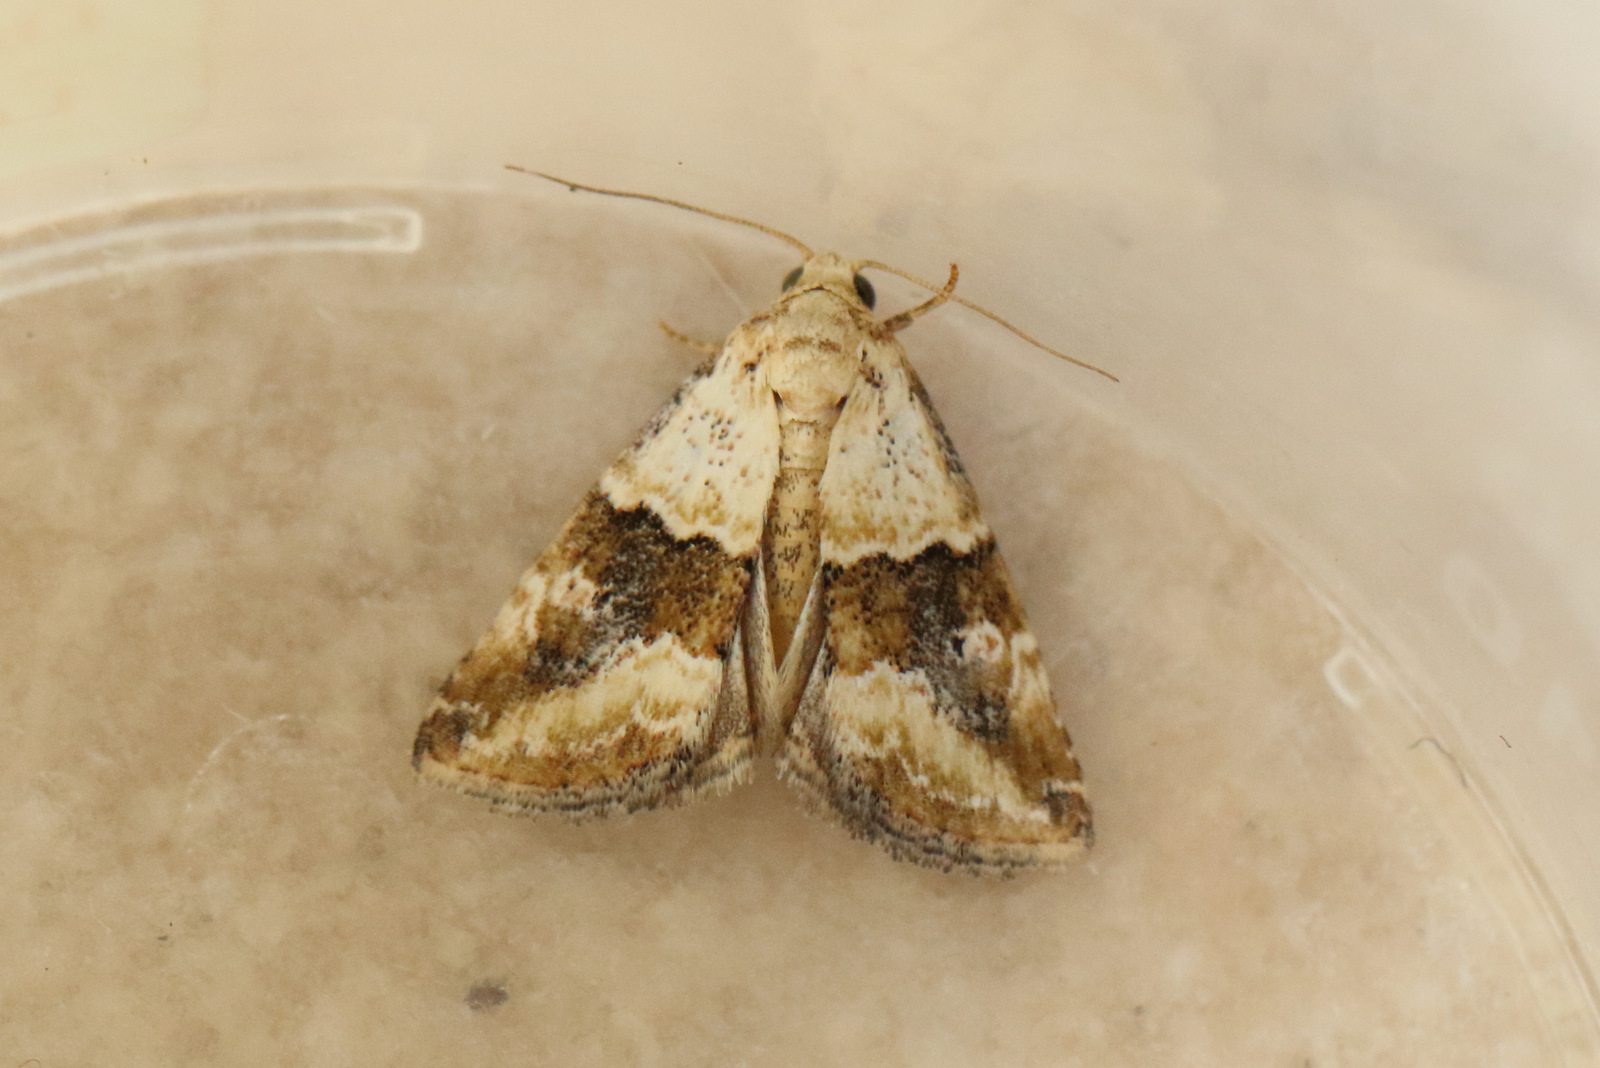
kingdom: Animalia
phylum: Arthropoda
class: Insecta
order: Lepidoptera
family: Noctuidae
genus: Maliattha
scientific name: Maliattha amorpha
